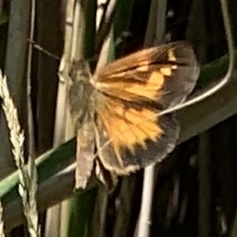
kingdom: Animalia
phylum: Arthropoda
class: Insecta
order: Lepidoptera
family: Hesperiidae
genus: Poanes
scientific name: Poanes viator
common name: Broad-winged skipper
